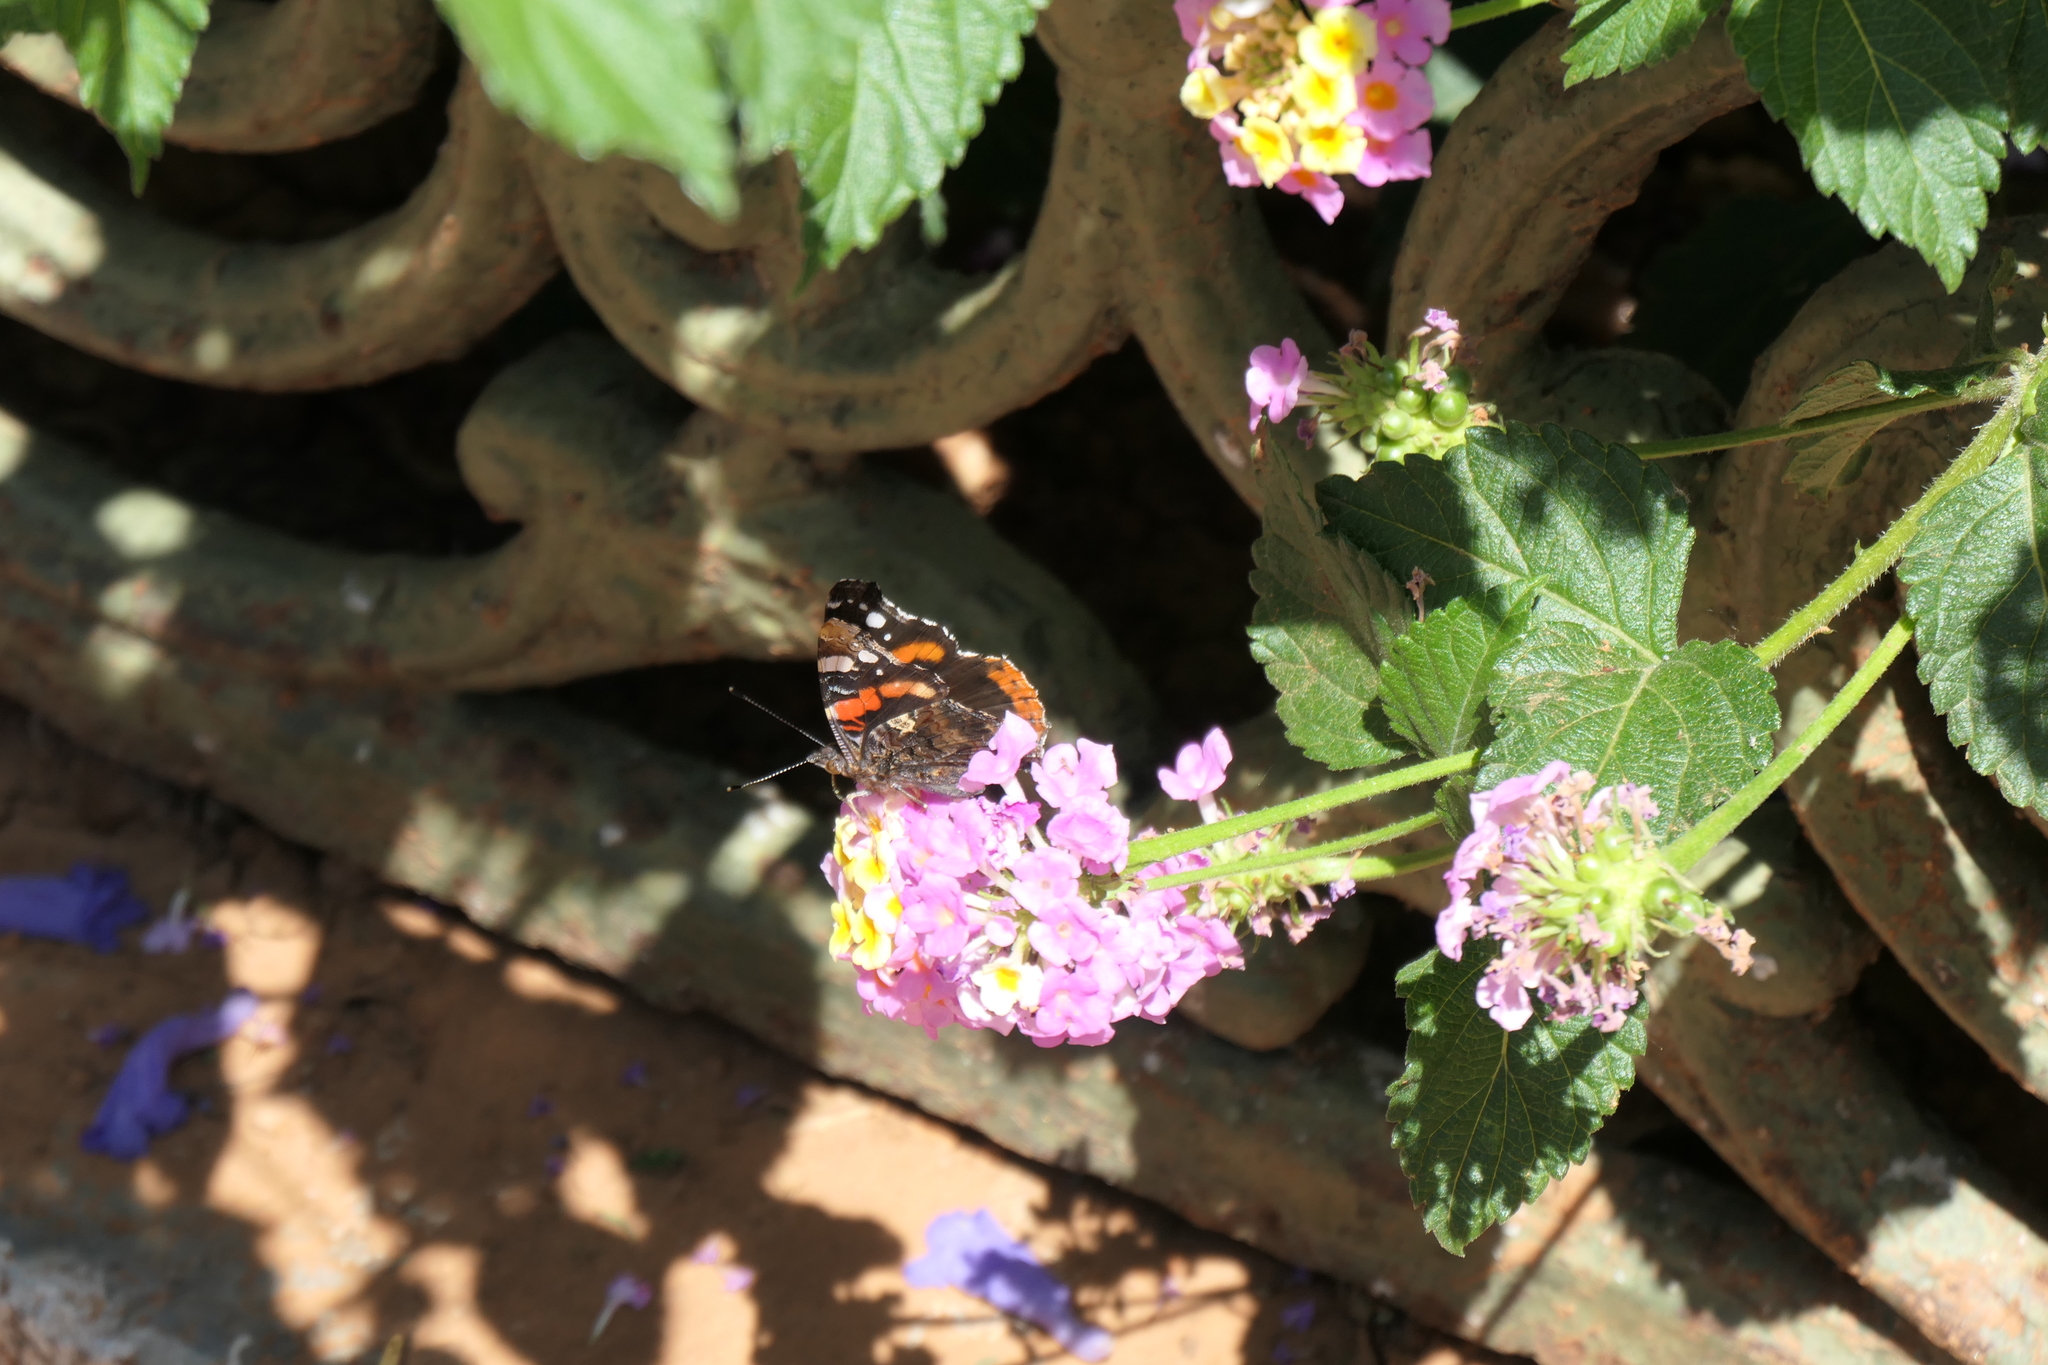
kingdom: Animalia
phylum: Arthropoda
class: Insecta
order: Lepidoptera
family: Nymphalidae
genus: Vanessa
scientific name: Vanessa atalanta
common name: Red admiral
